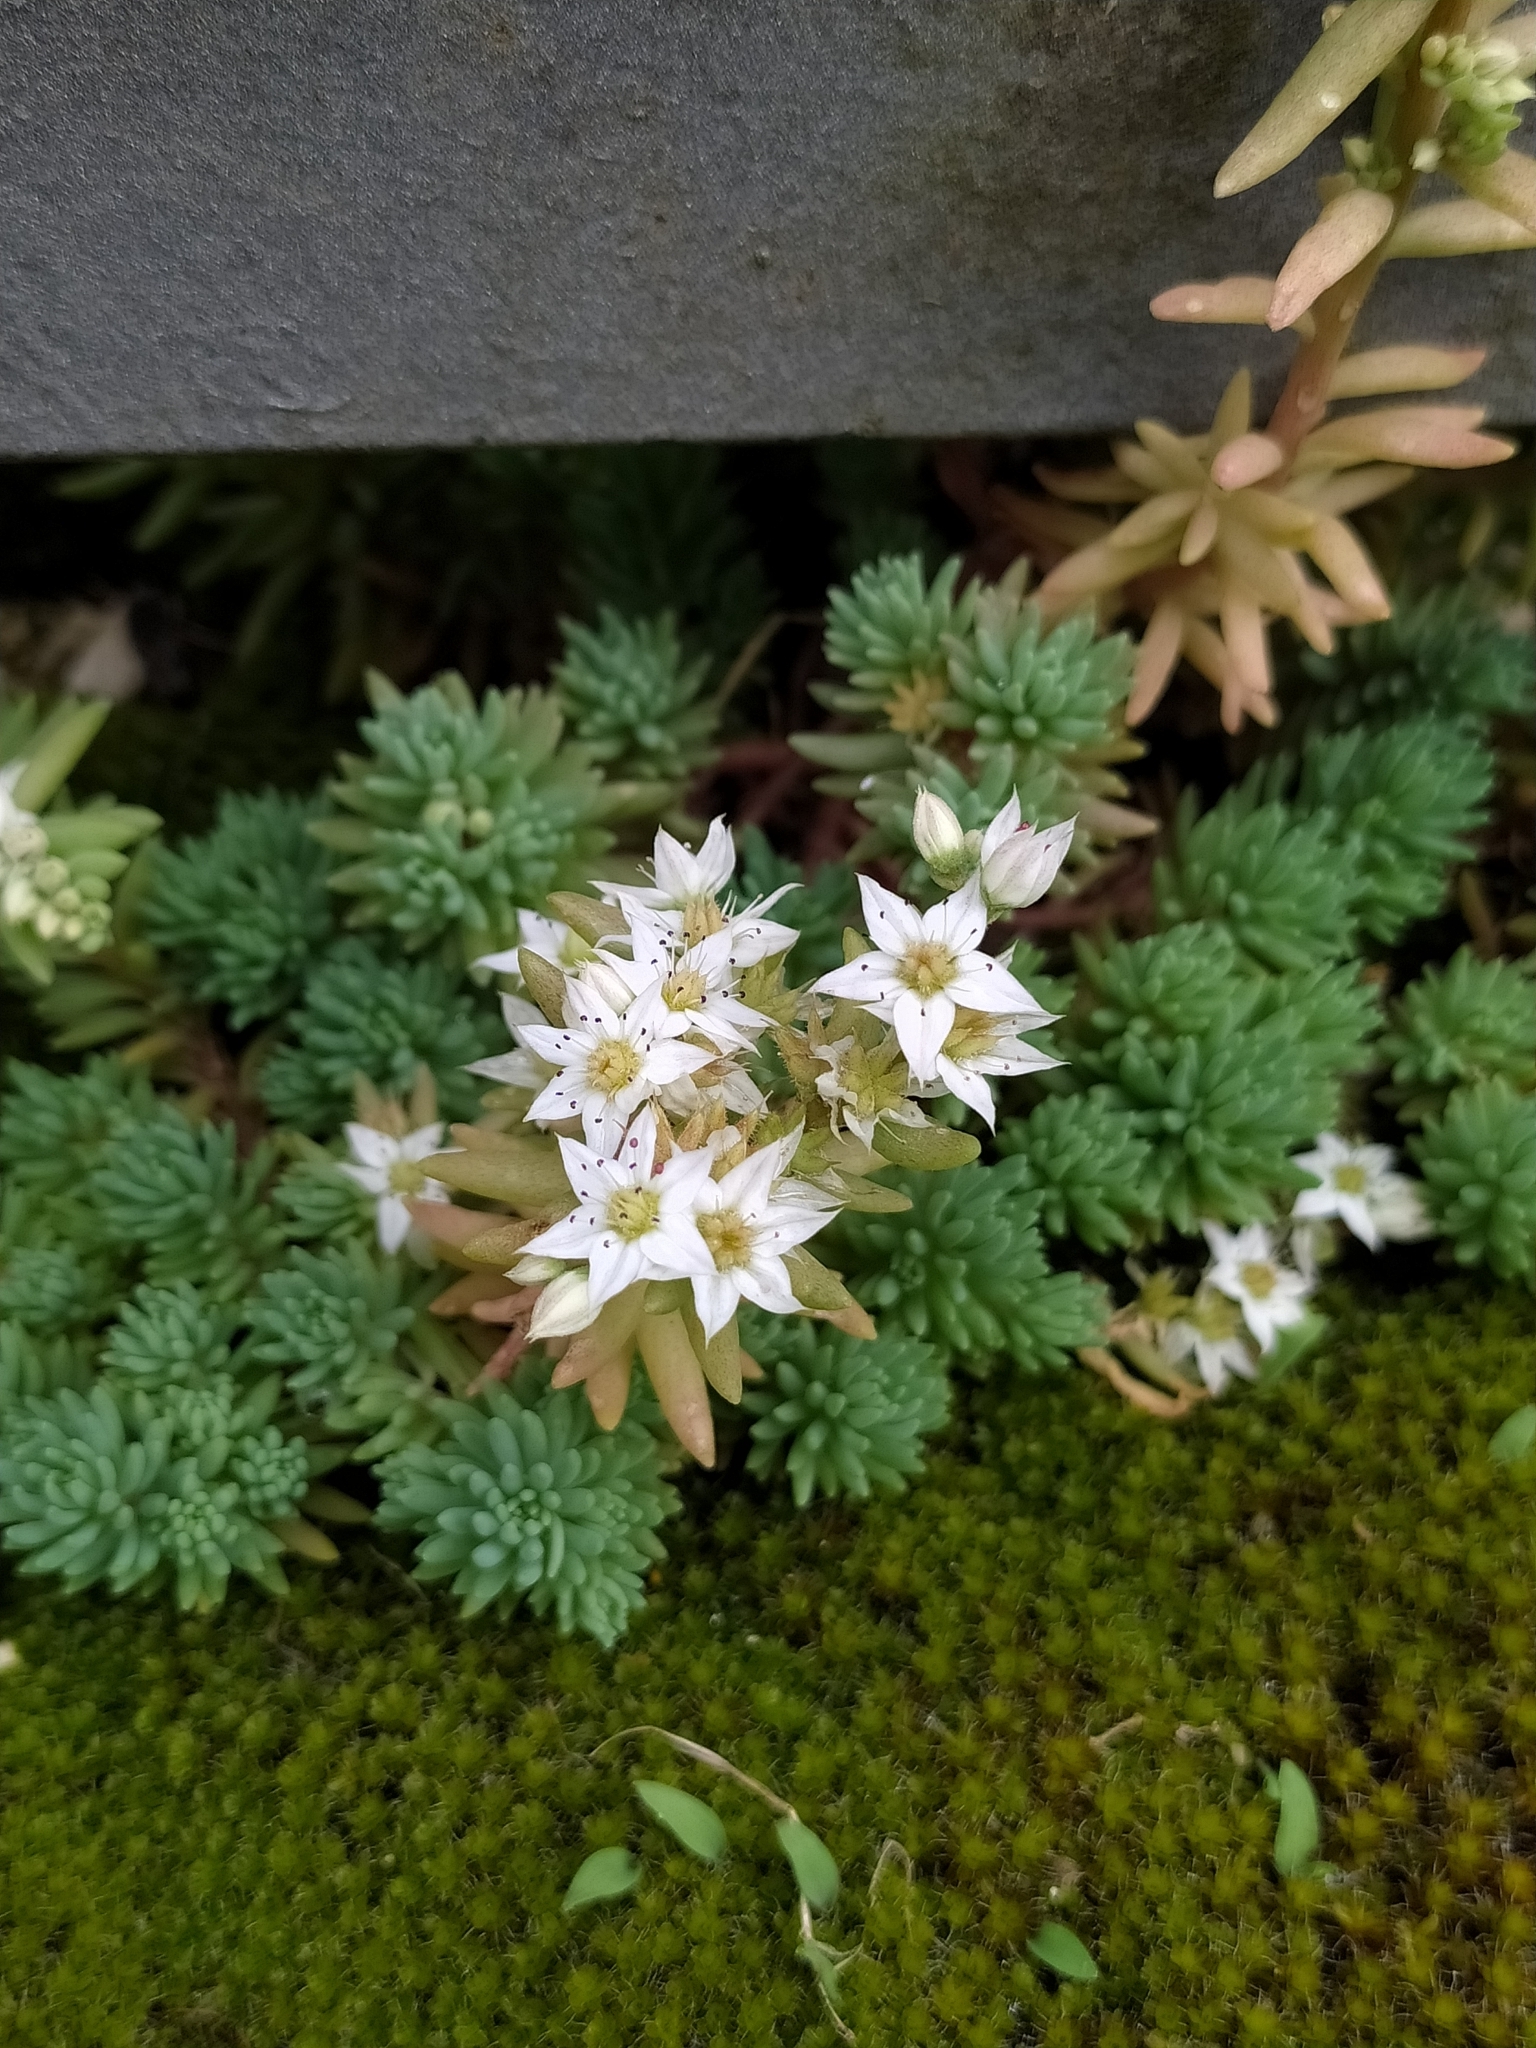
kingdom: Plantae
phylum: Tracheophyta
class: Magnoliopsida
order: Saxifragales
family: Crassulaceae
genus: Sedum
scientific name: Sedum hispanicum
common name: Spanish stonecrop
